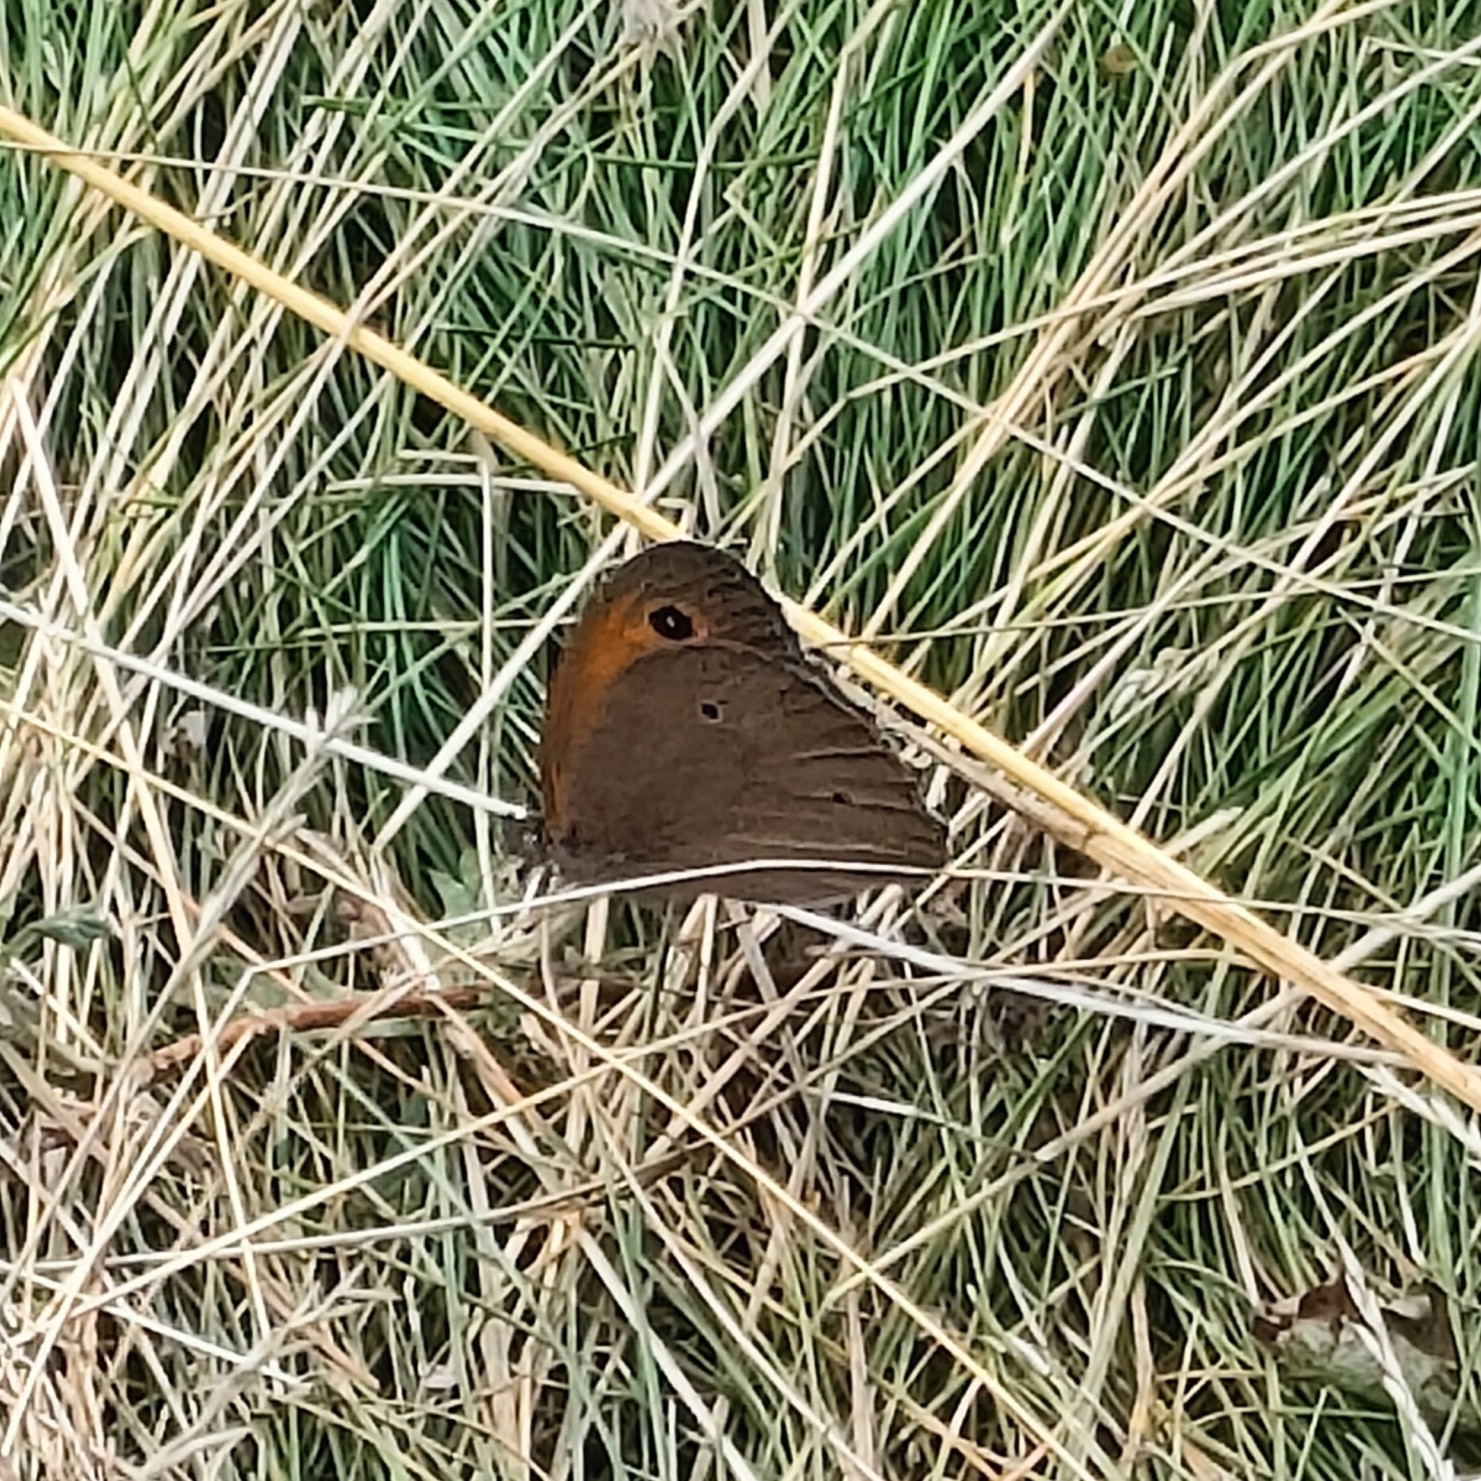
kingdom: Animalia
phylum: Arthropoda
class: Insecta
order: Lepidoptera
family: Nymphalidae
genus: Maniola
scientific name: Maniola jurtina
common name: Meadow brown
